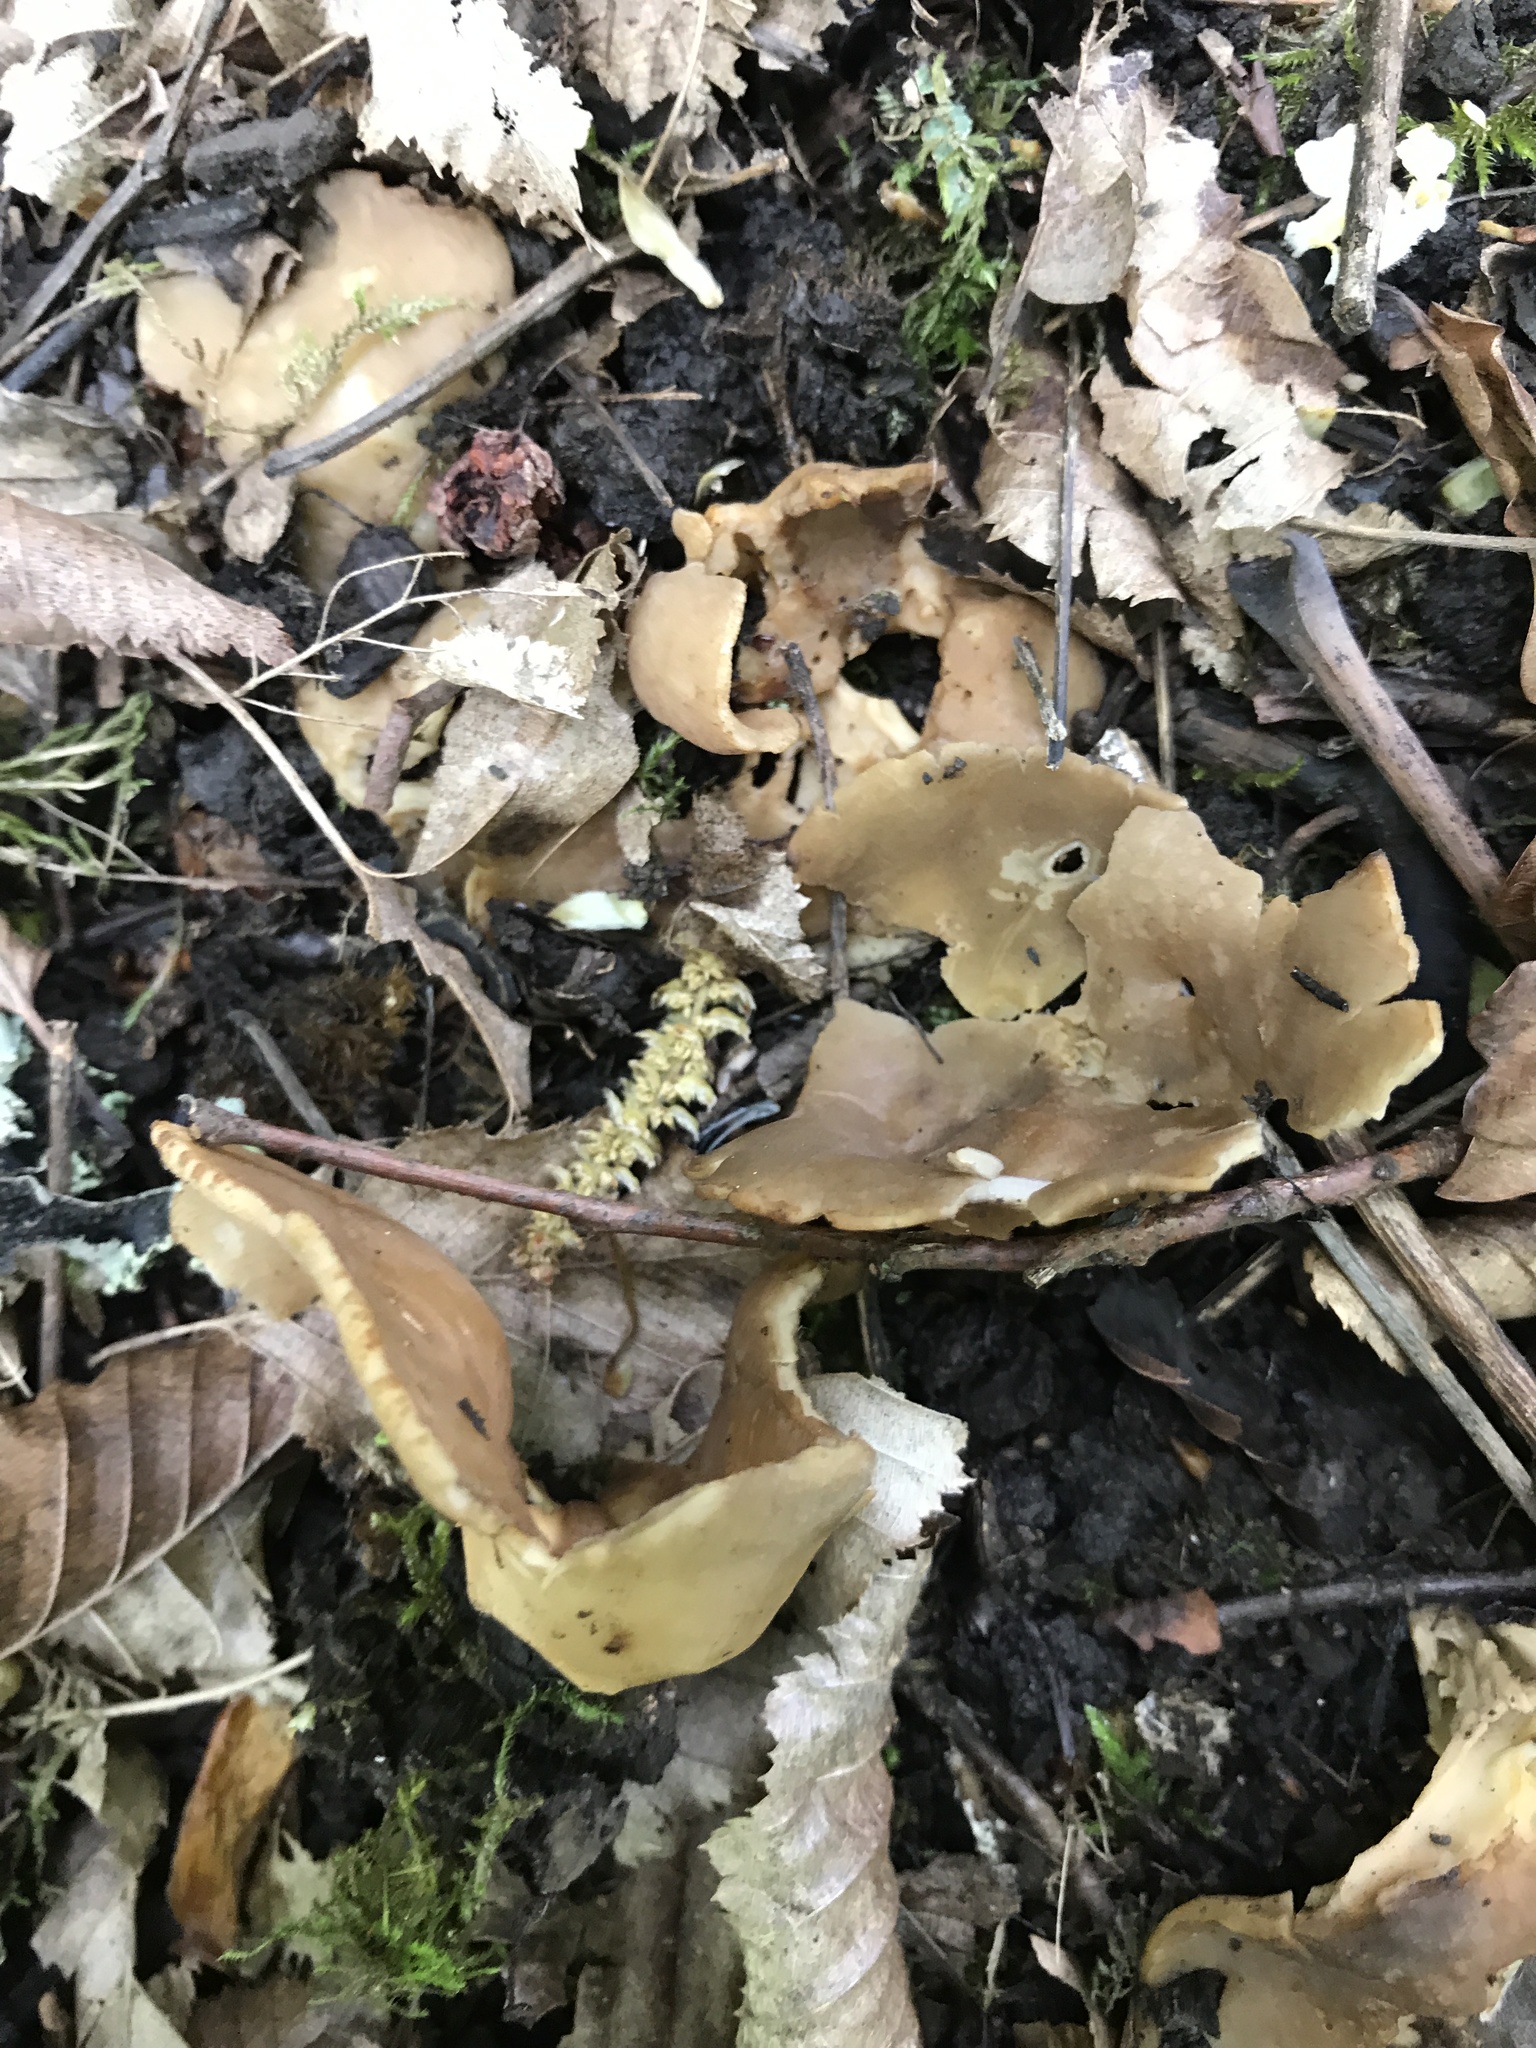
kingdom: Fungi
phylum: Ascomycota
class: Pezizomycetes
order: Pezizales
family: Helvellaceae
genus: Helvella
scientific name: Helvella acetabulum
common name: Vinegar cup
